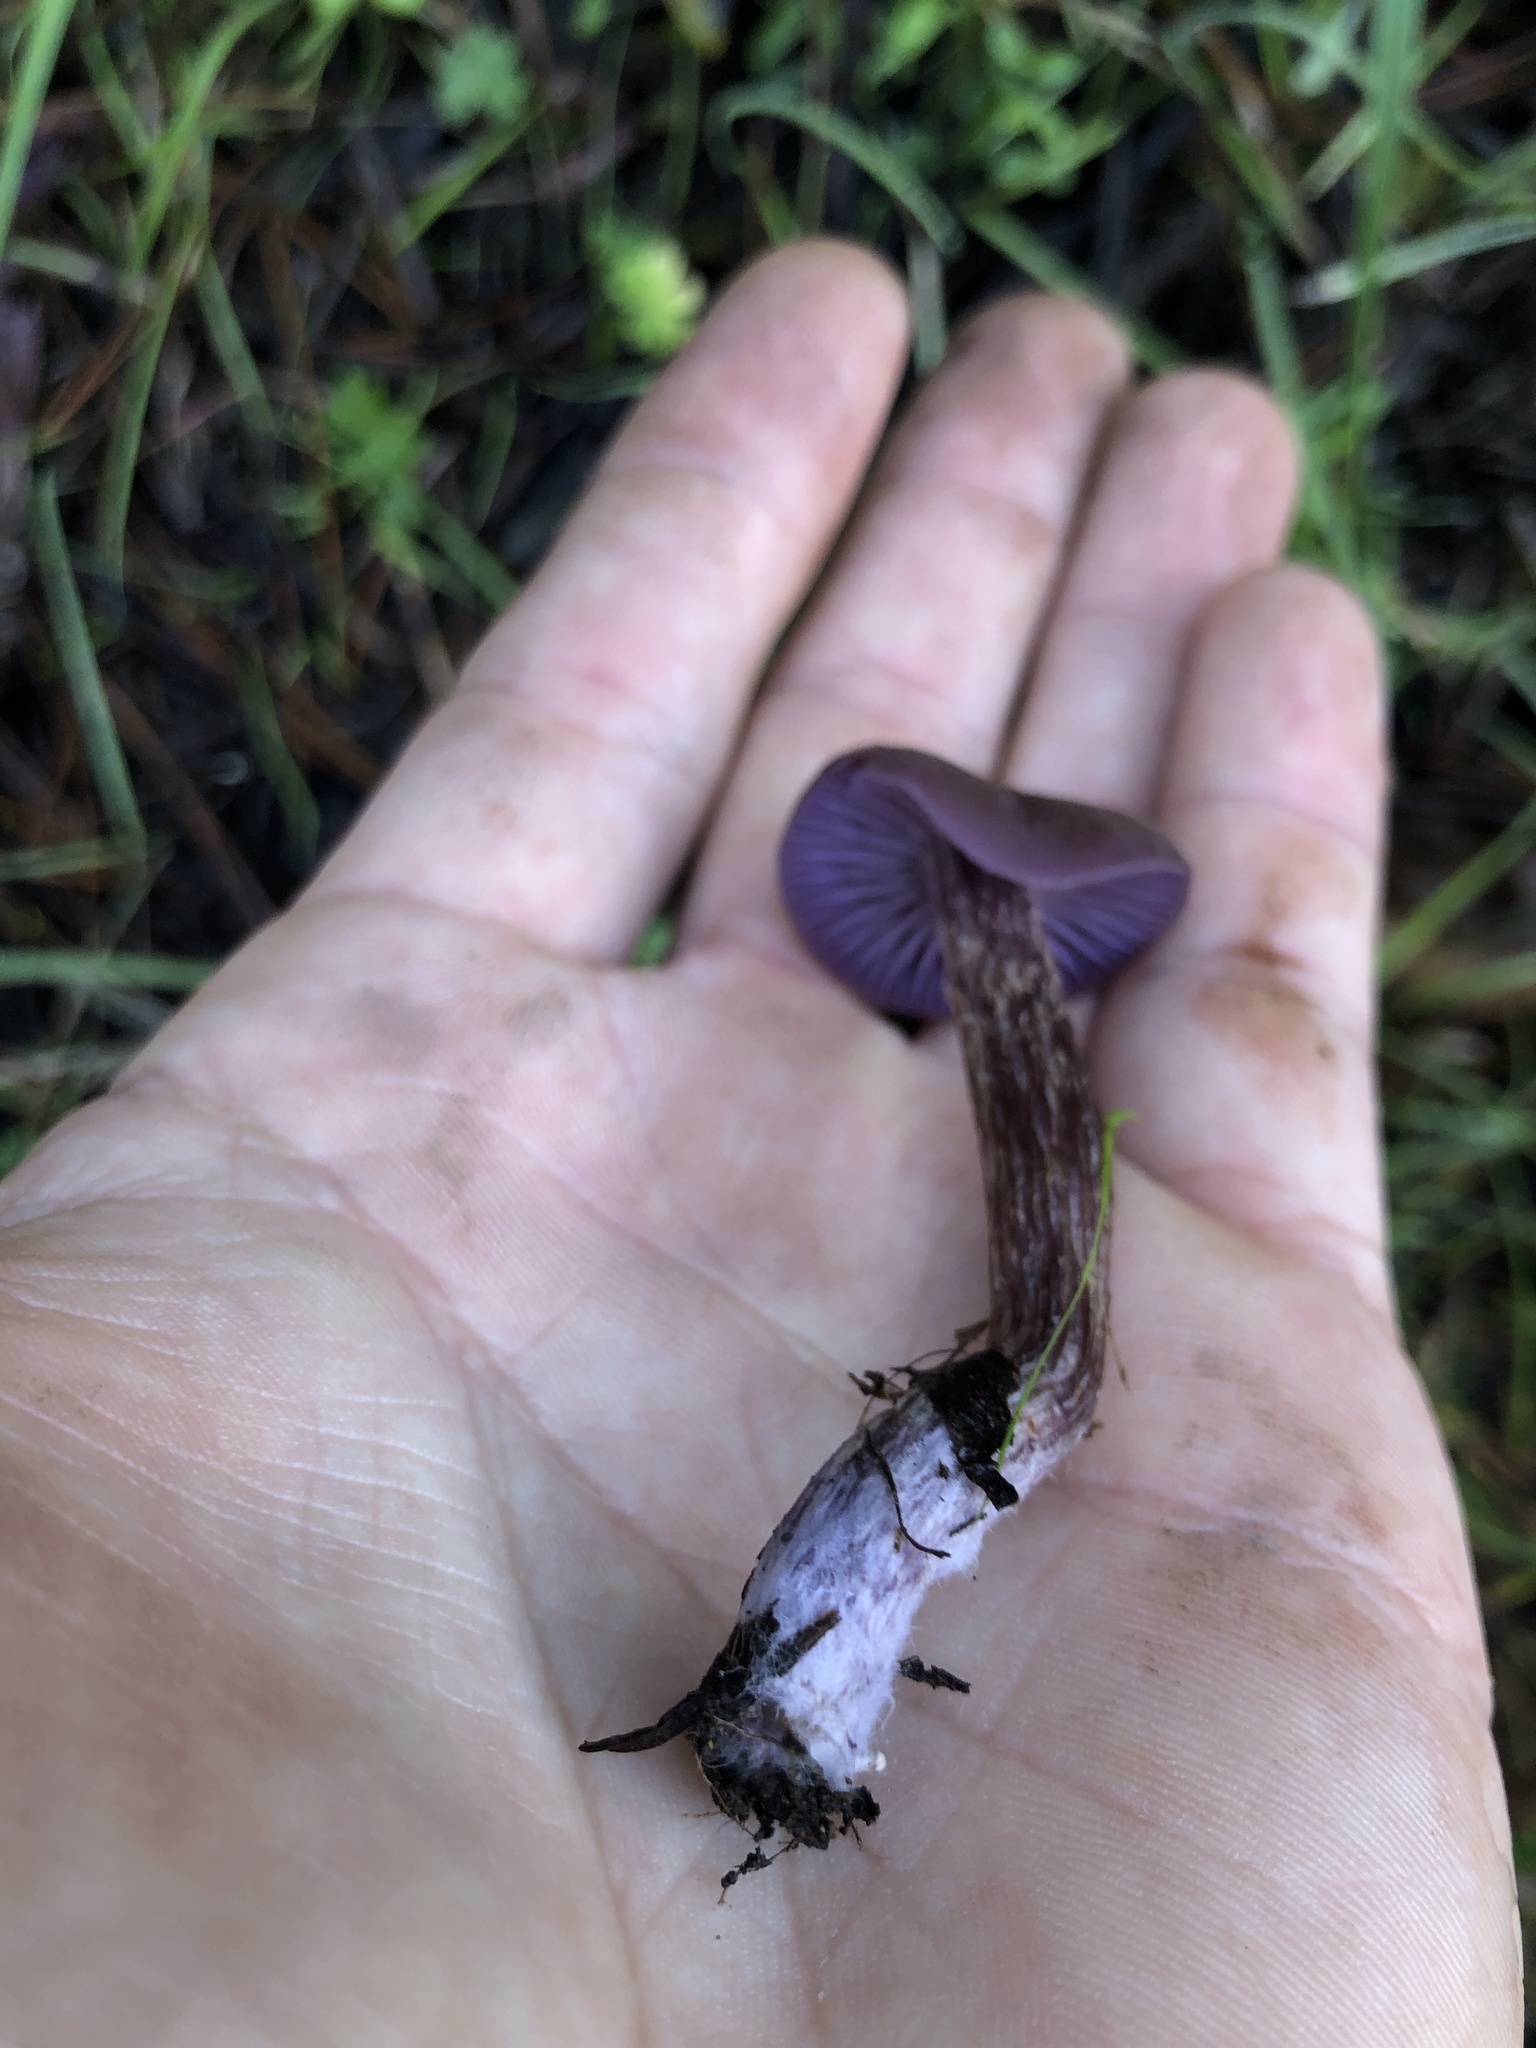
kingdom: Fungi
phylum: Basidiomycota
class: Agaricomycetes
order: Agaricales
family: Hydnangiaceae
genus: Laccaria
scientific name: Laccaria amethysteo-occidentalis
